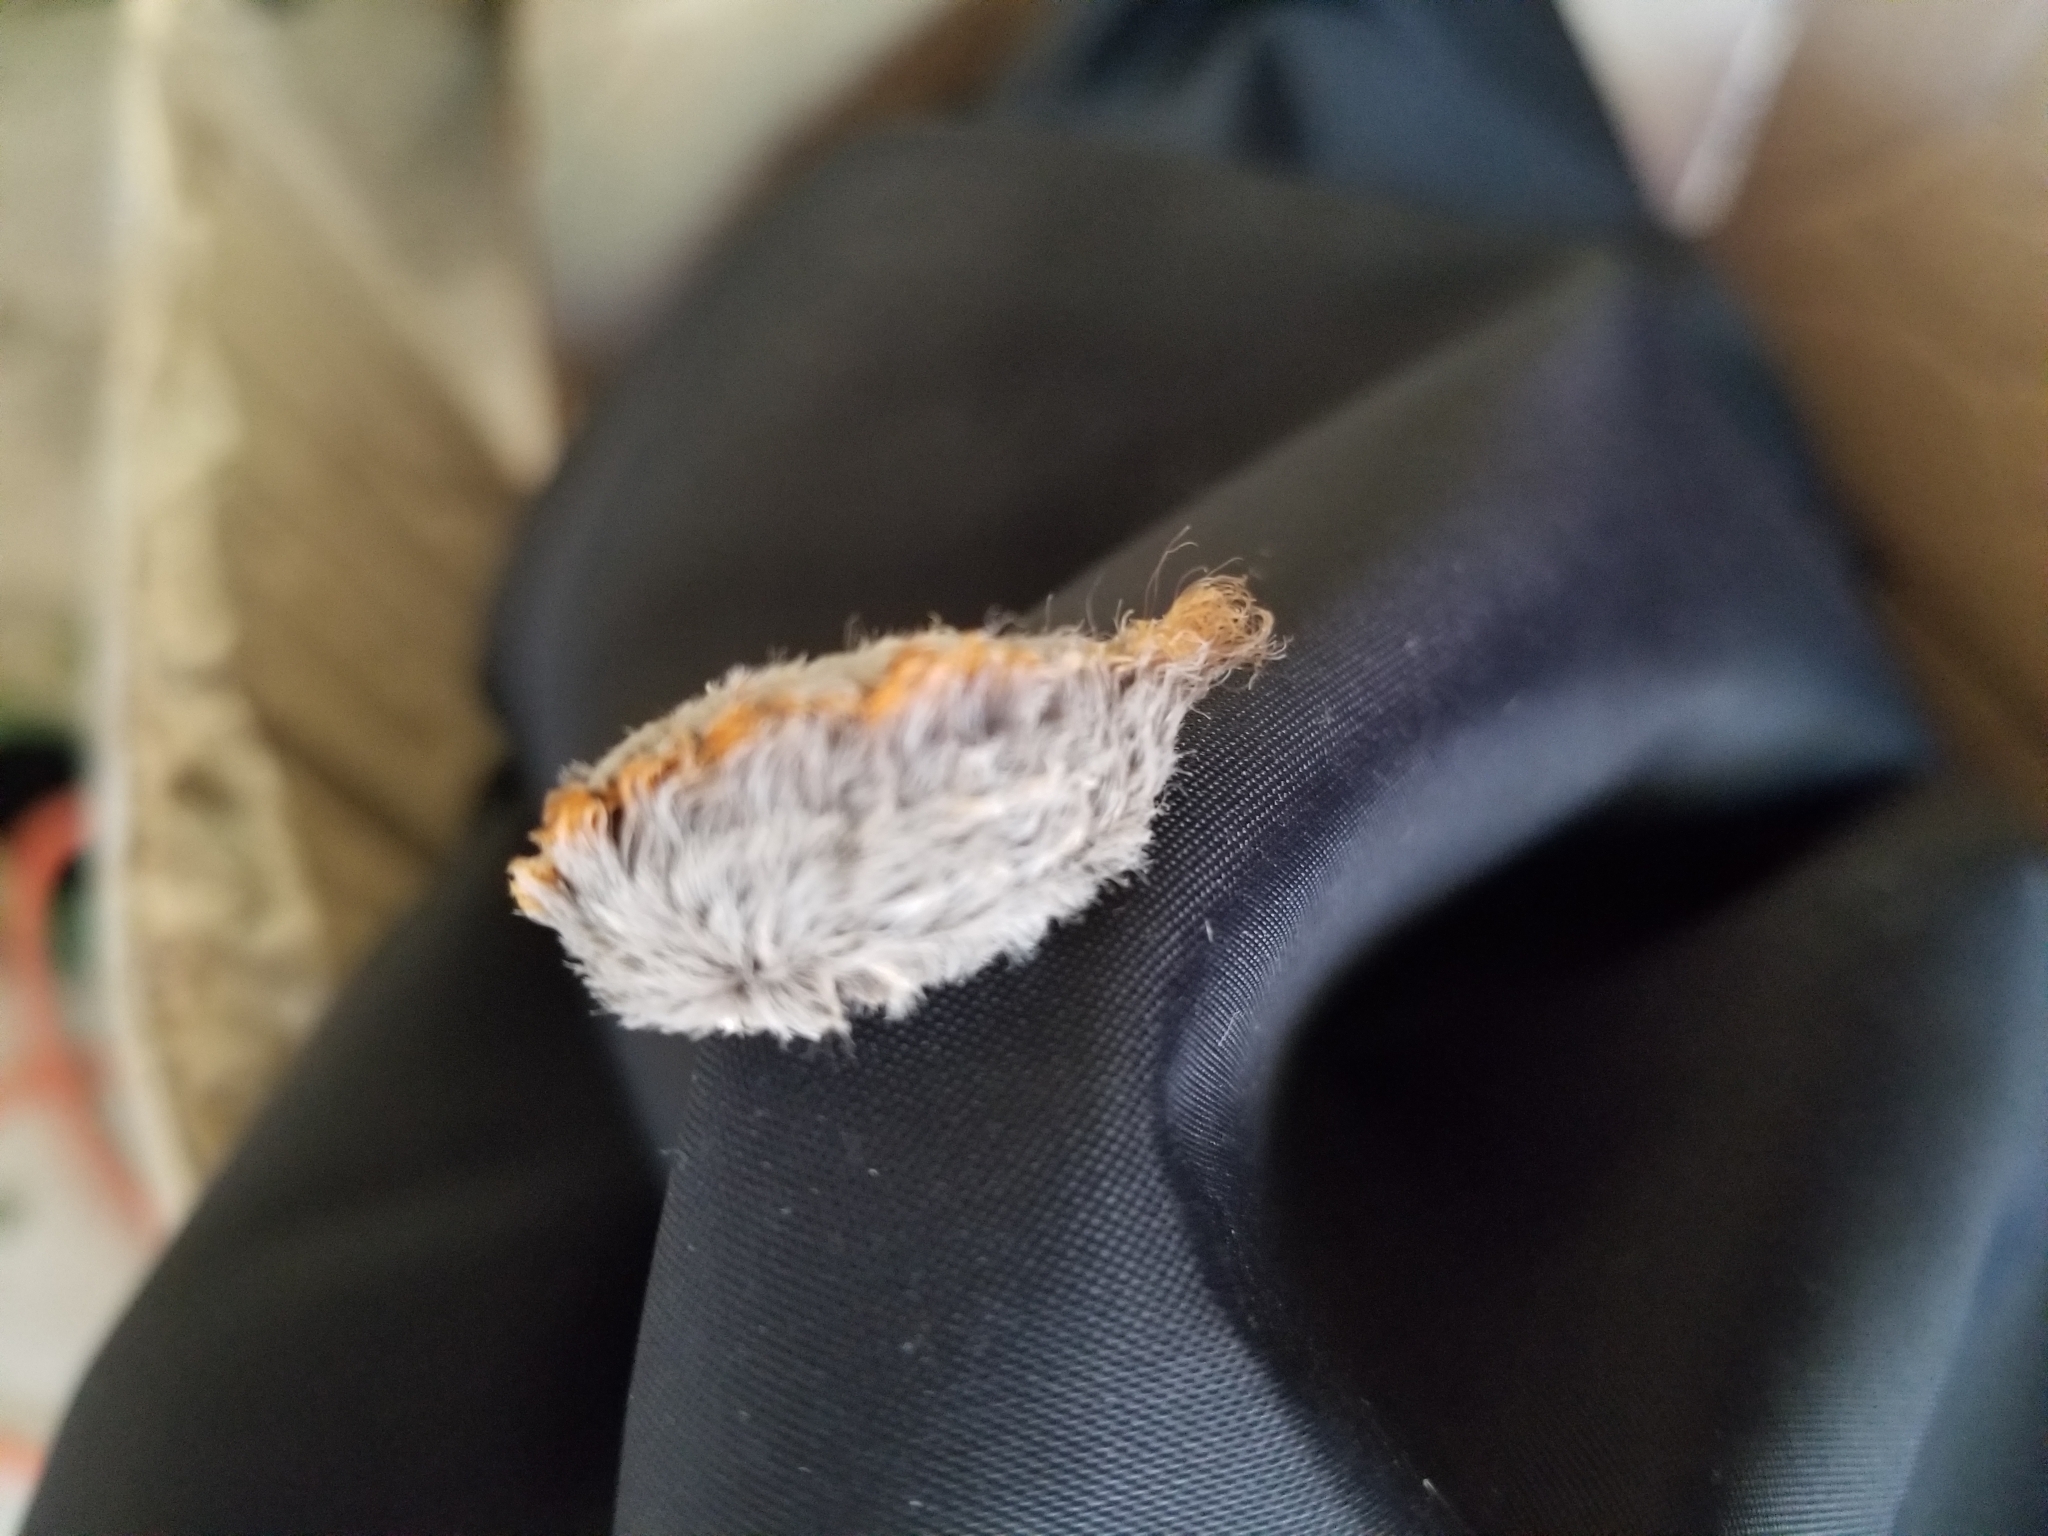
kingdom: Animalia
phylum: Arthropoda
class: Insecta
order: Lepidoptera
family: Megalopygidae
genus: Megalopyge
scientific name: Megalopyge opercularis
